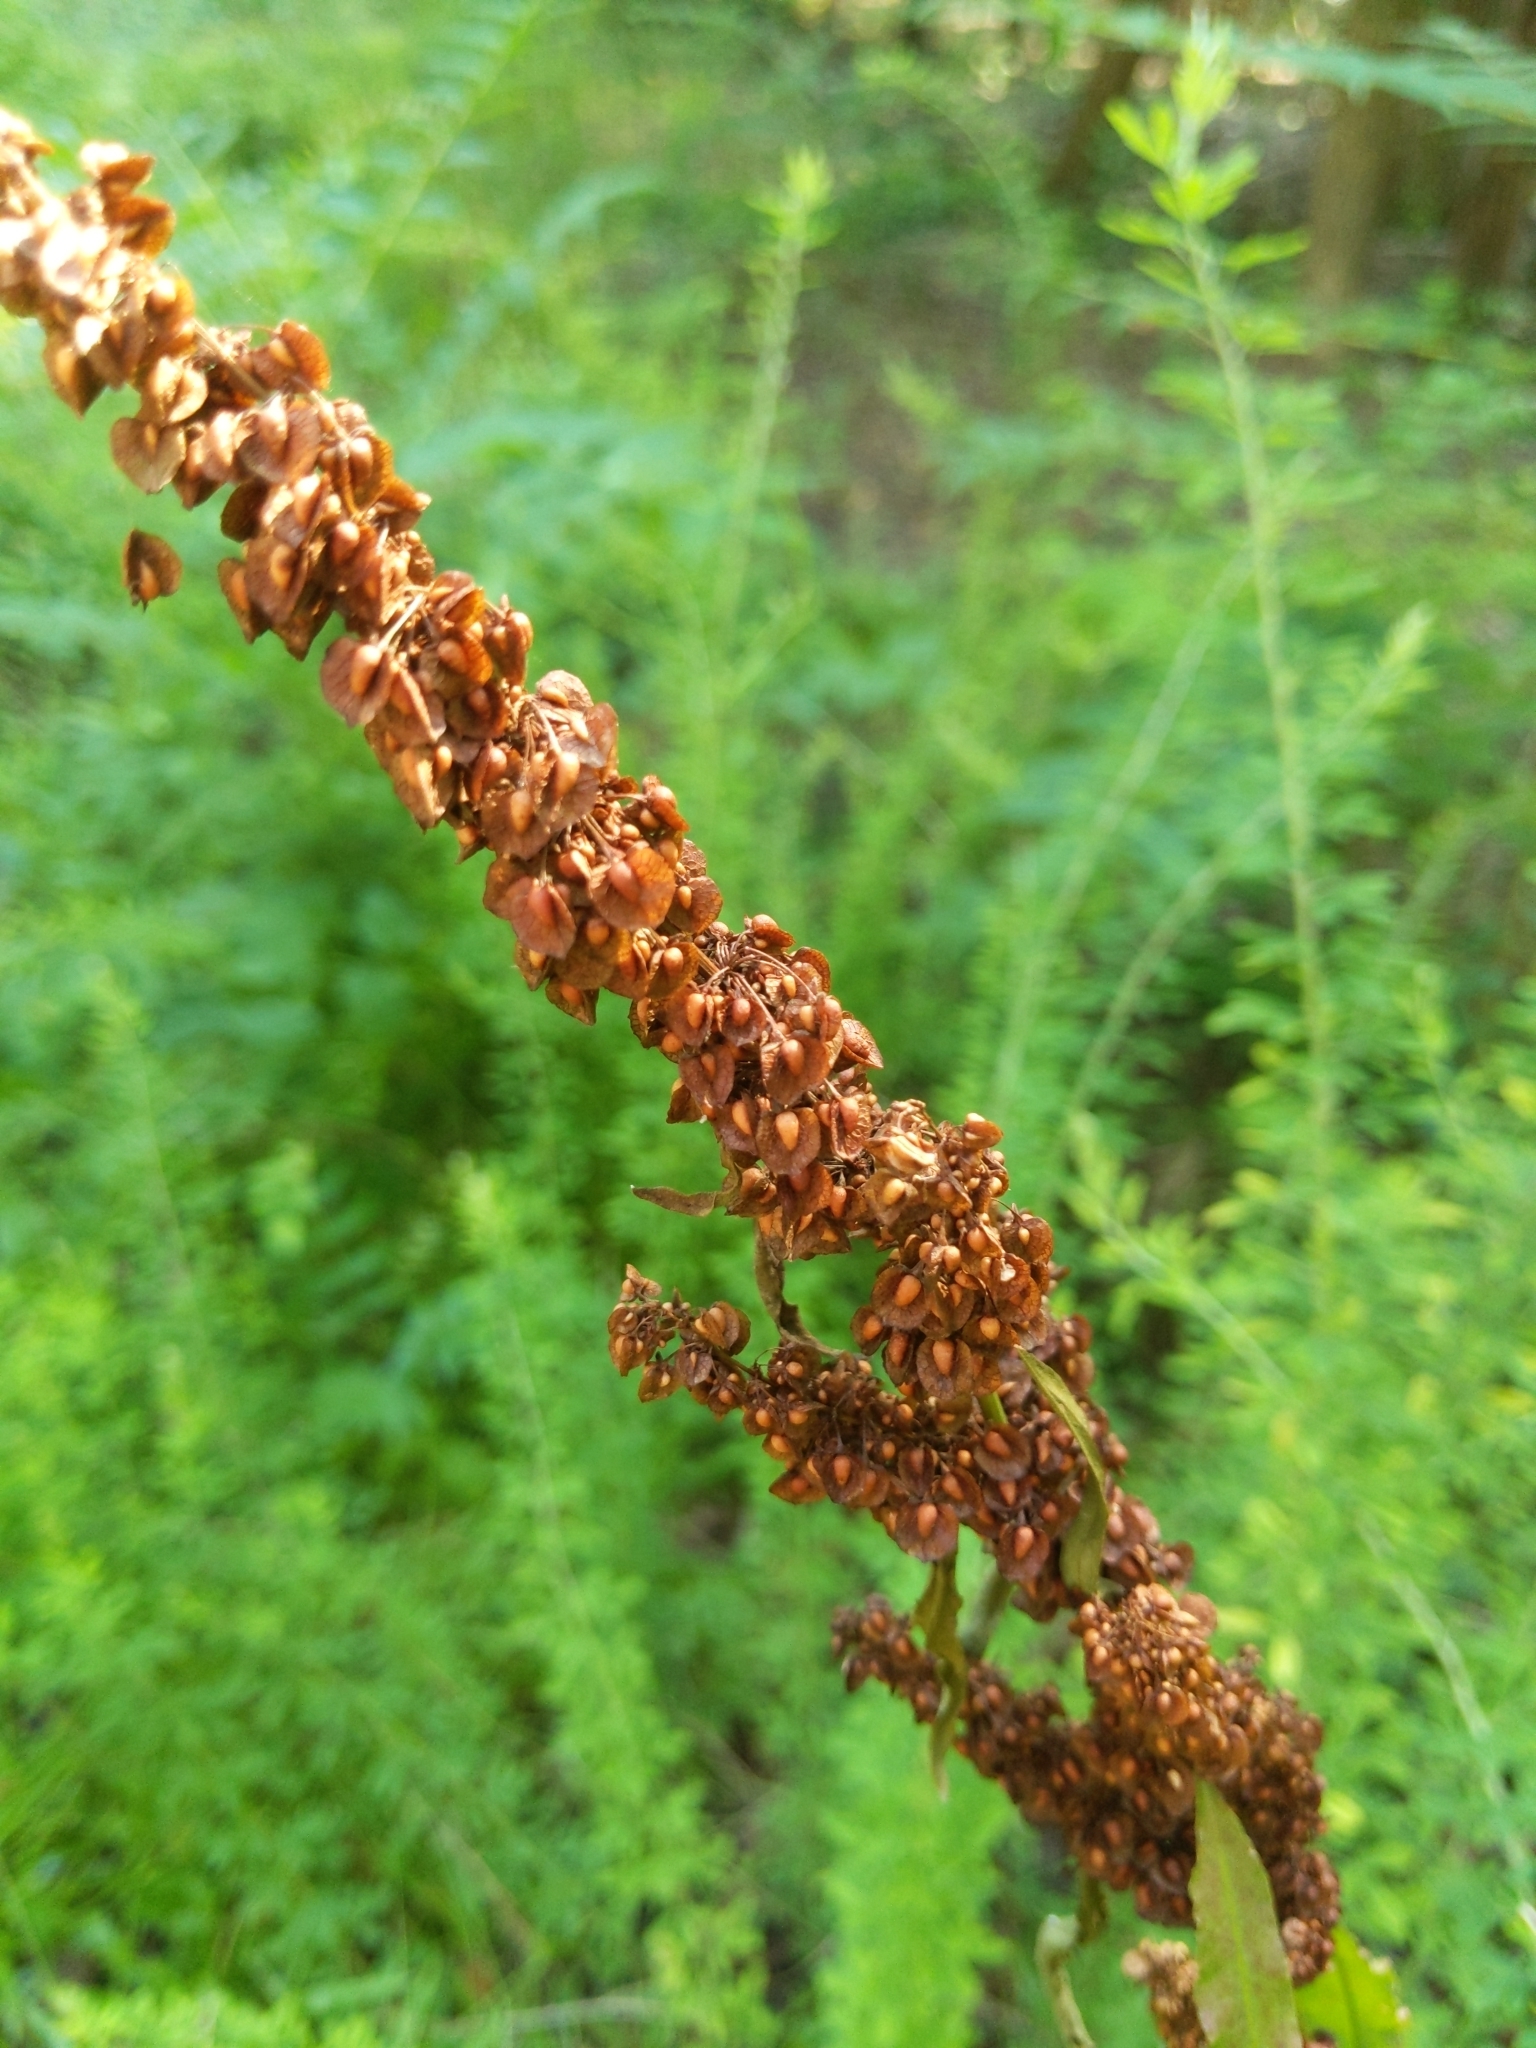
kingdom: Plantae
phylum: Tracheophyta
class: Magnoliopsida
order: Caryophyllales
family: Polygonaceae
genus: Rumex
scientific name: Rumex crispus
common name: Curled dock
